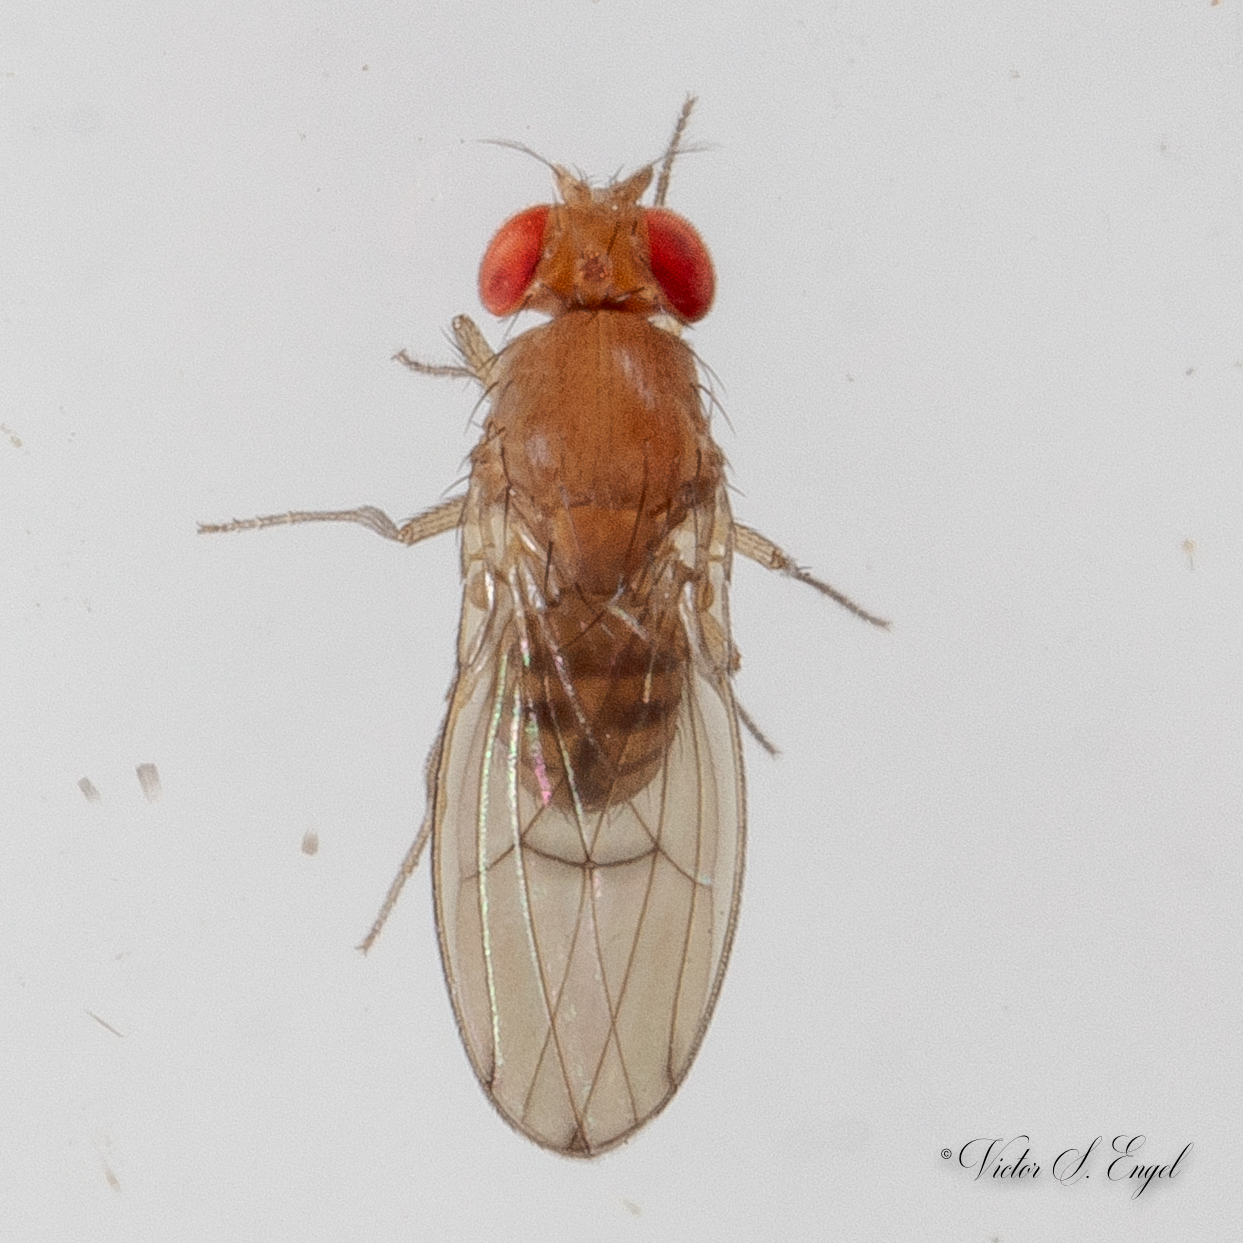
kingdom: Animalia
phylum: Arthropoda
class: Insecta
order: Diptera
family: Drosophilidae
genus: Drosophila
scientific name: Drosophila immigrans
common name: Pomace fly
